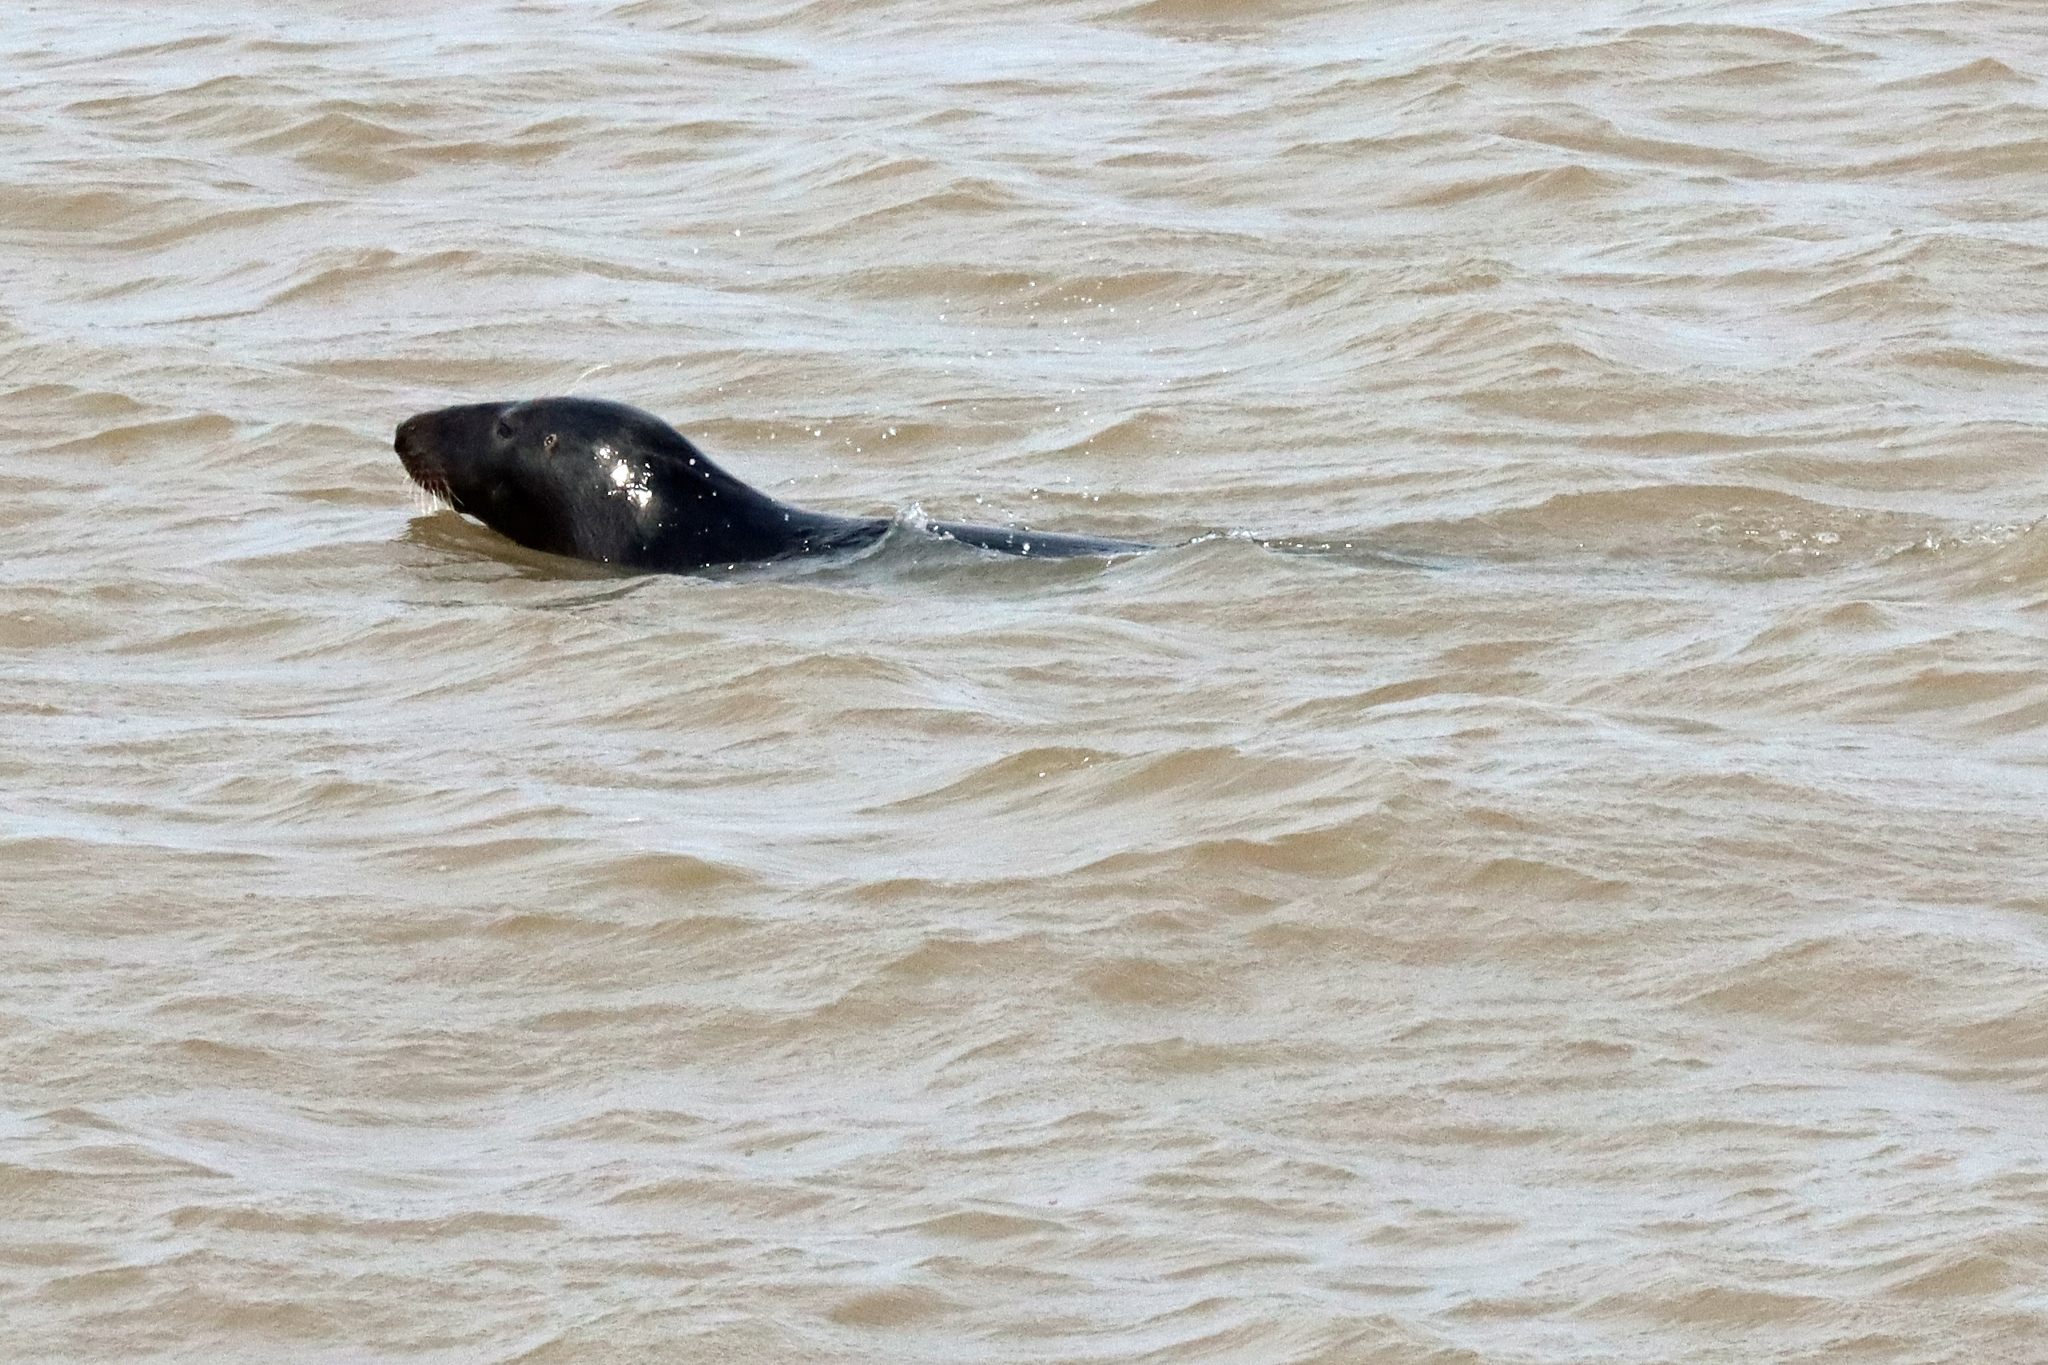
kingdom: Animalia
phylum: Chordata
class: Mammalia
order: Carnivora
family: Phocidae
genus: Halichoerus
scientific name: Halichoerus grypus
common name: Grey seal
